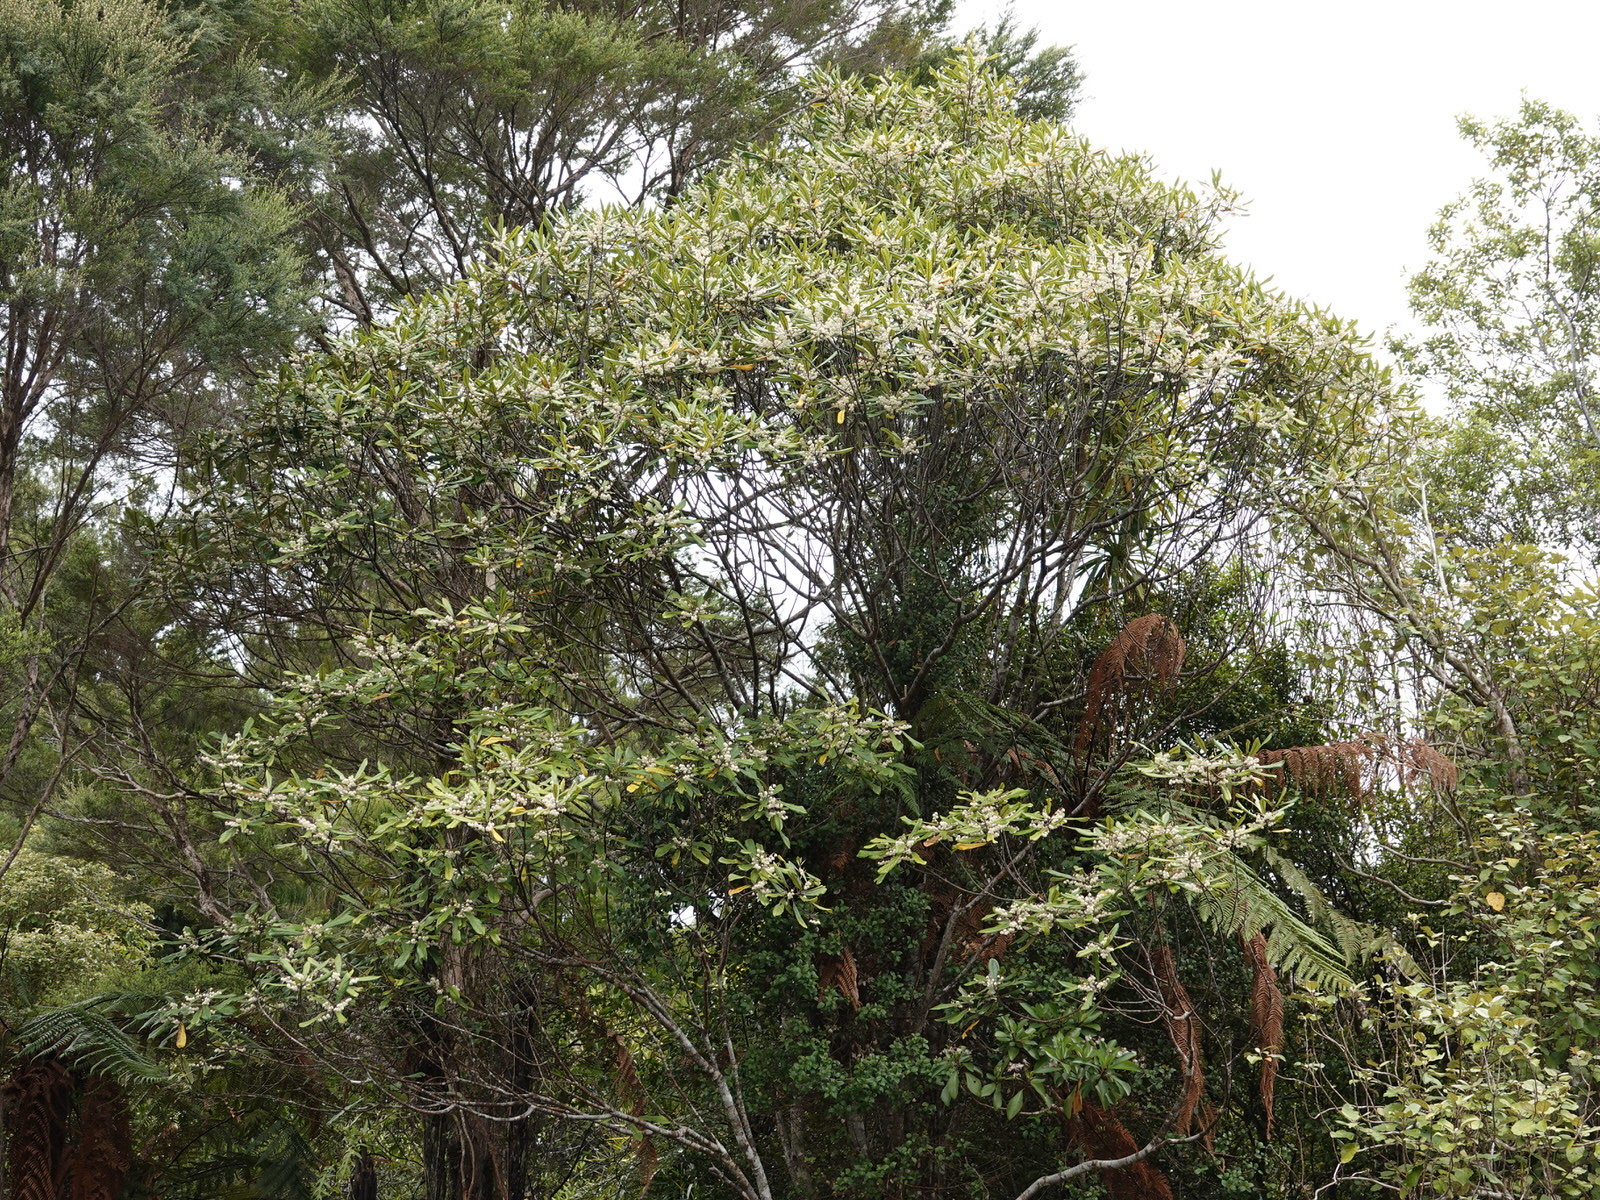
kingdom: Plantae
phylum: Tracheophyta
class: Magnoliopsida
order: Oxalidales
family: Elaeocarpaceae
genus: Elaeocarpus
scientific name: Elaeocarpus dentatus
